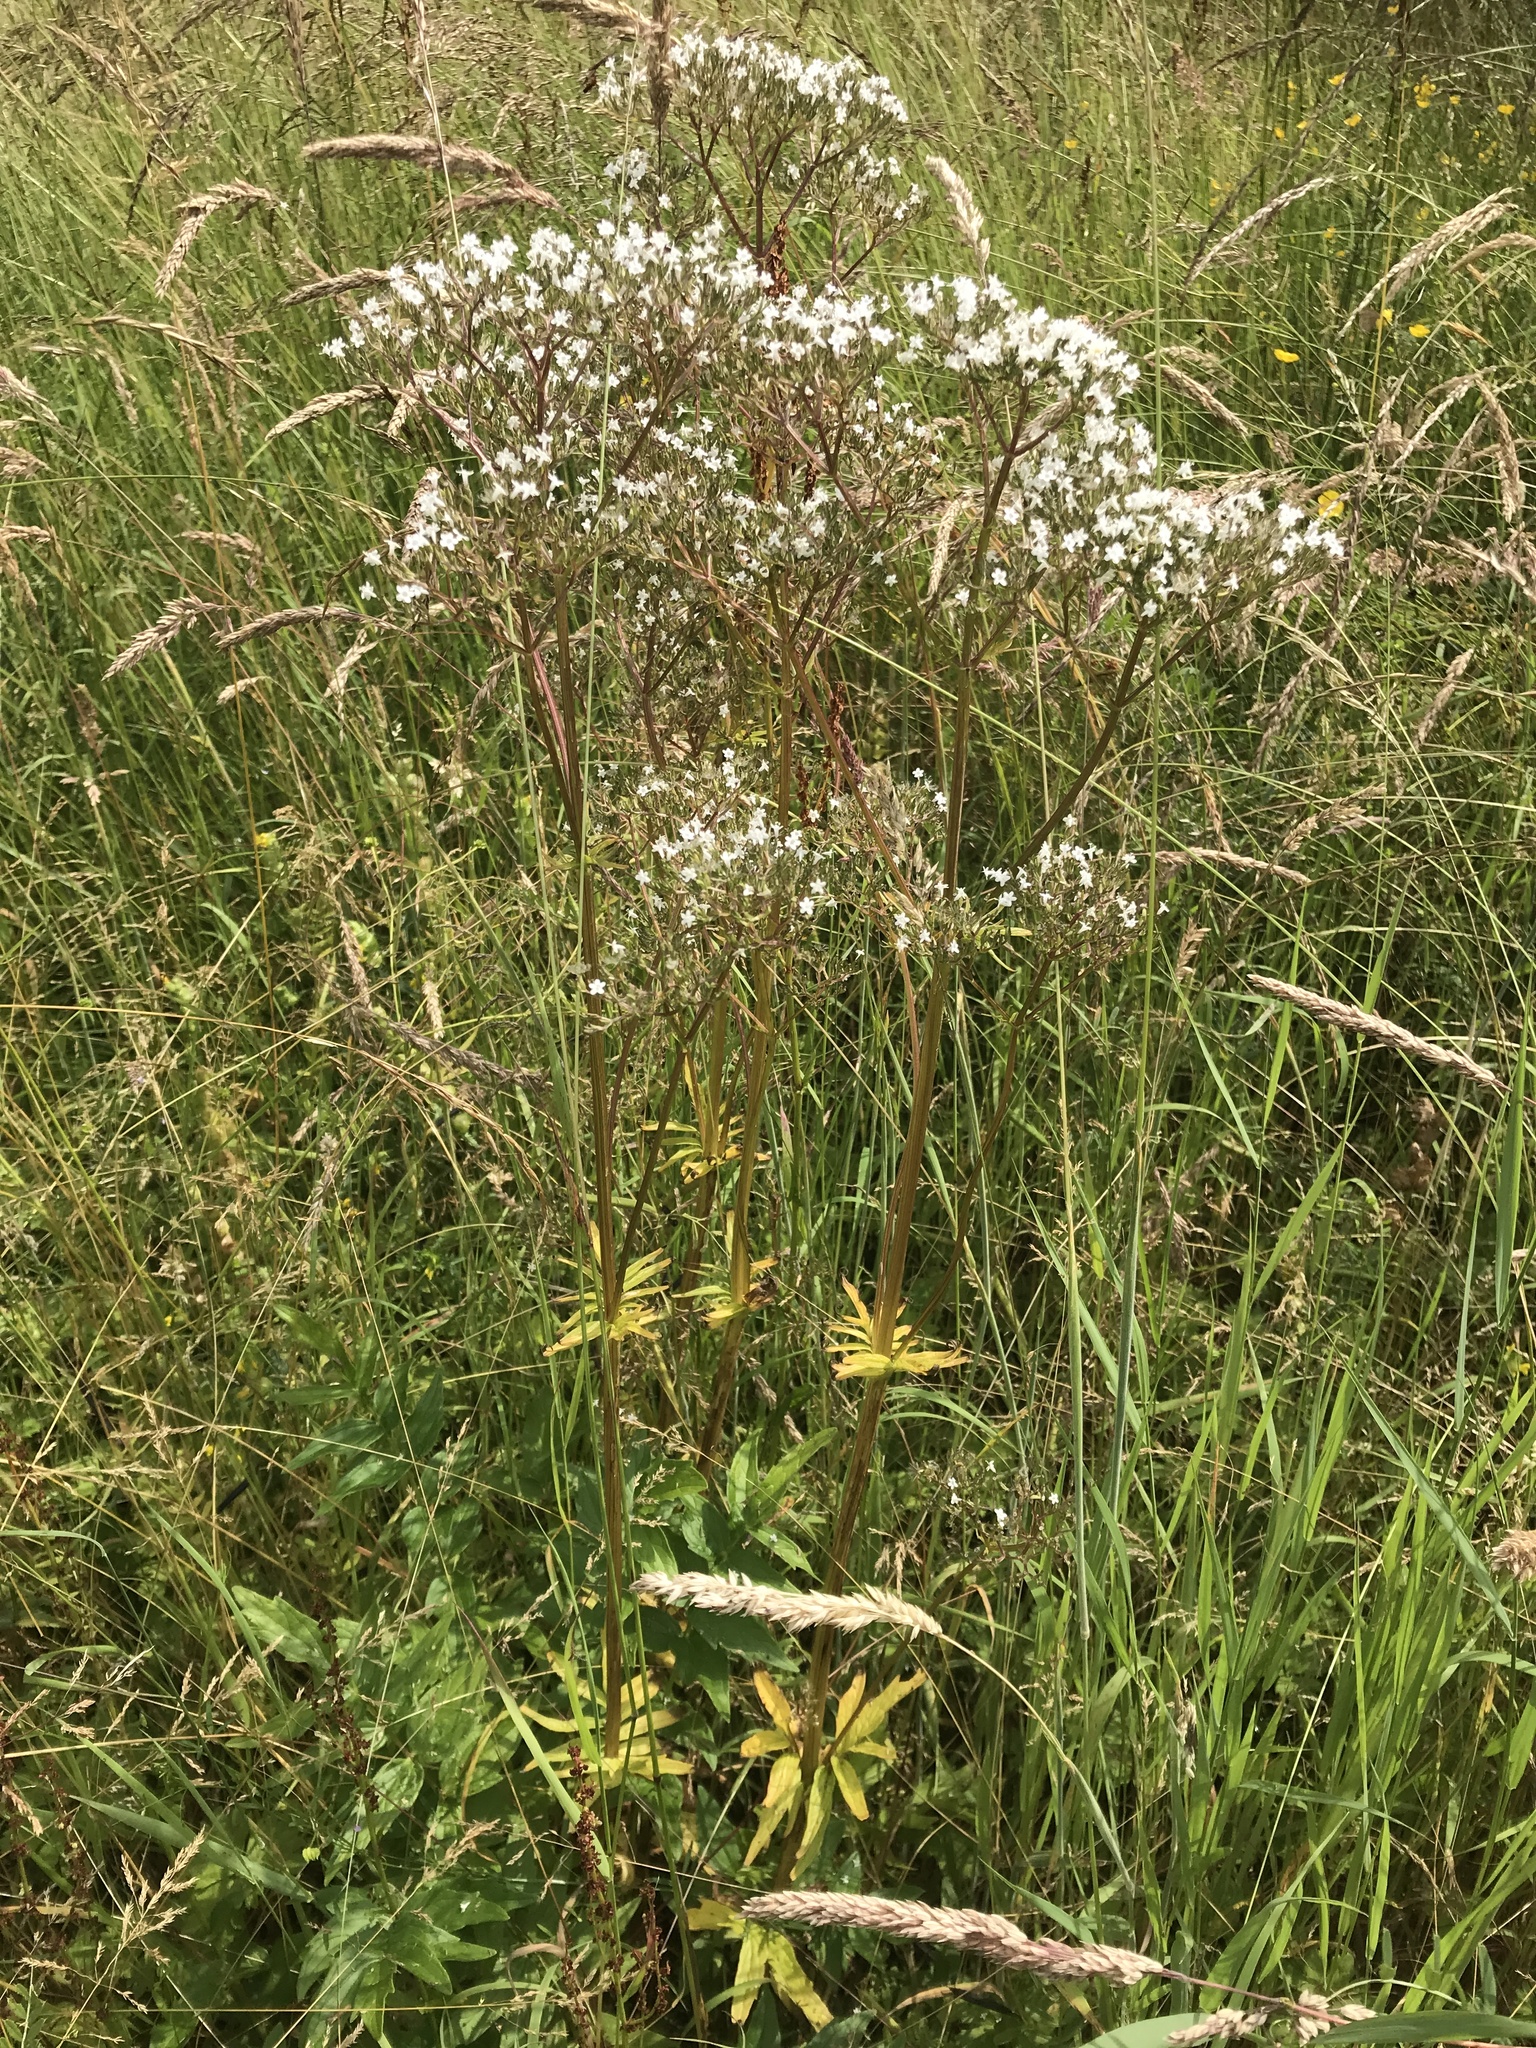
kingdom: Plantae
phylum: Tracheophyta
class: Magnoliopsida
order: Dipsacales
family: Caprifoliaceae
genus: Valeriana
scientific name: Valeriana officinalis
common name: Common valerian
